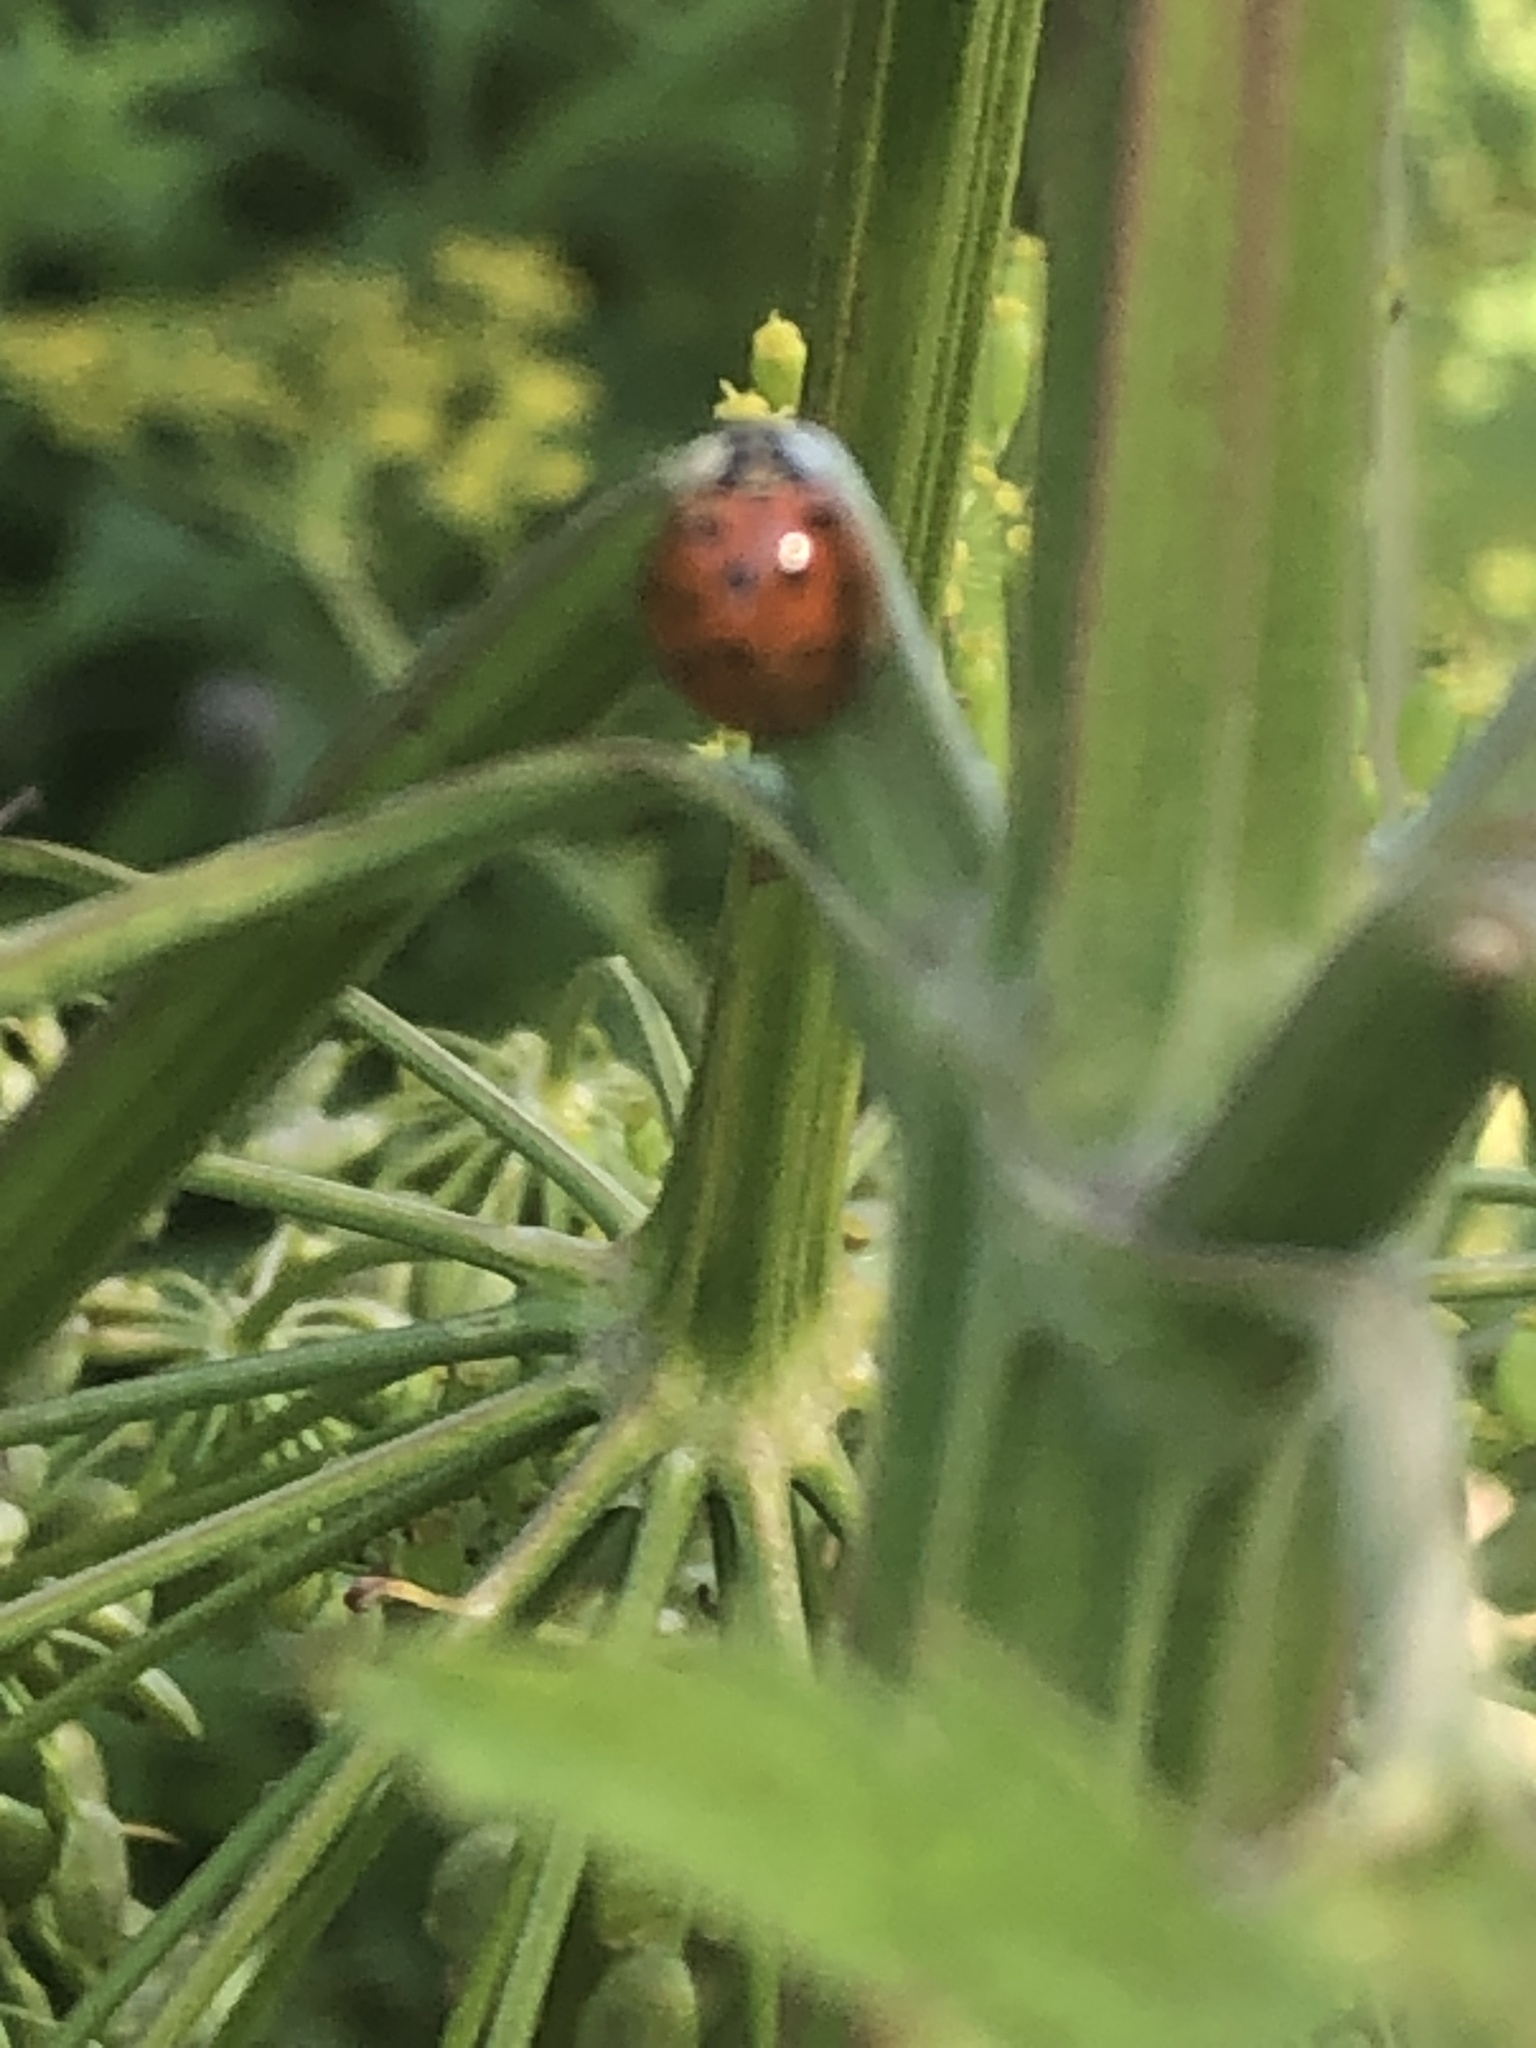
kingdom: Animalia
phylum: Arthropoda
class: Insecta
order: Coleoptera
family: Coccinellidae
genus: Harmonia
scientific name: Harmonia axyridis
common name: Harlequin ladybird
